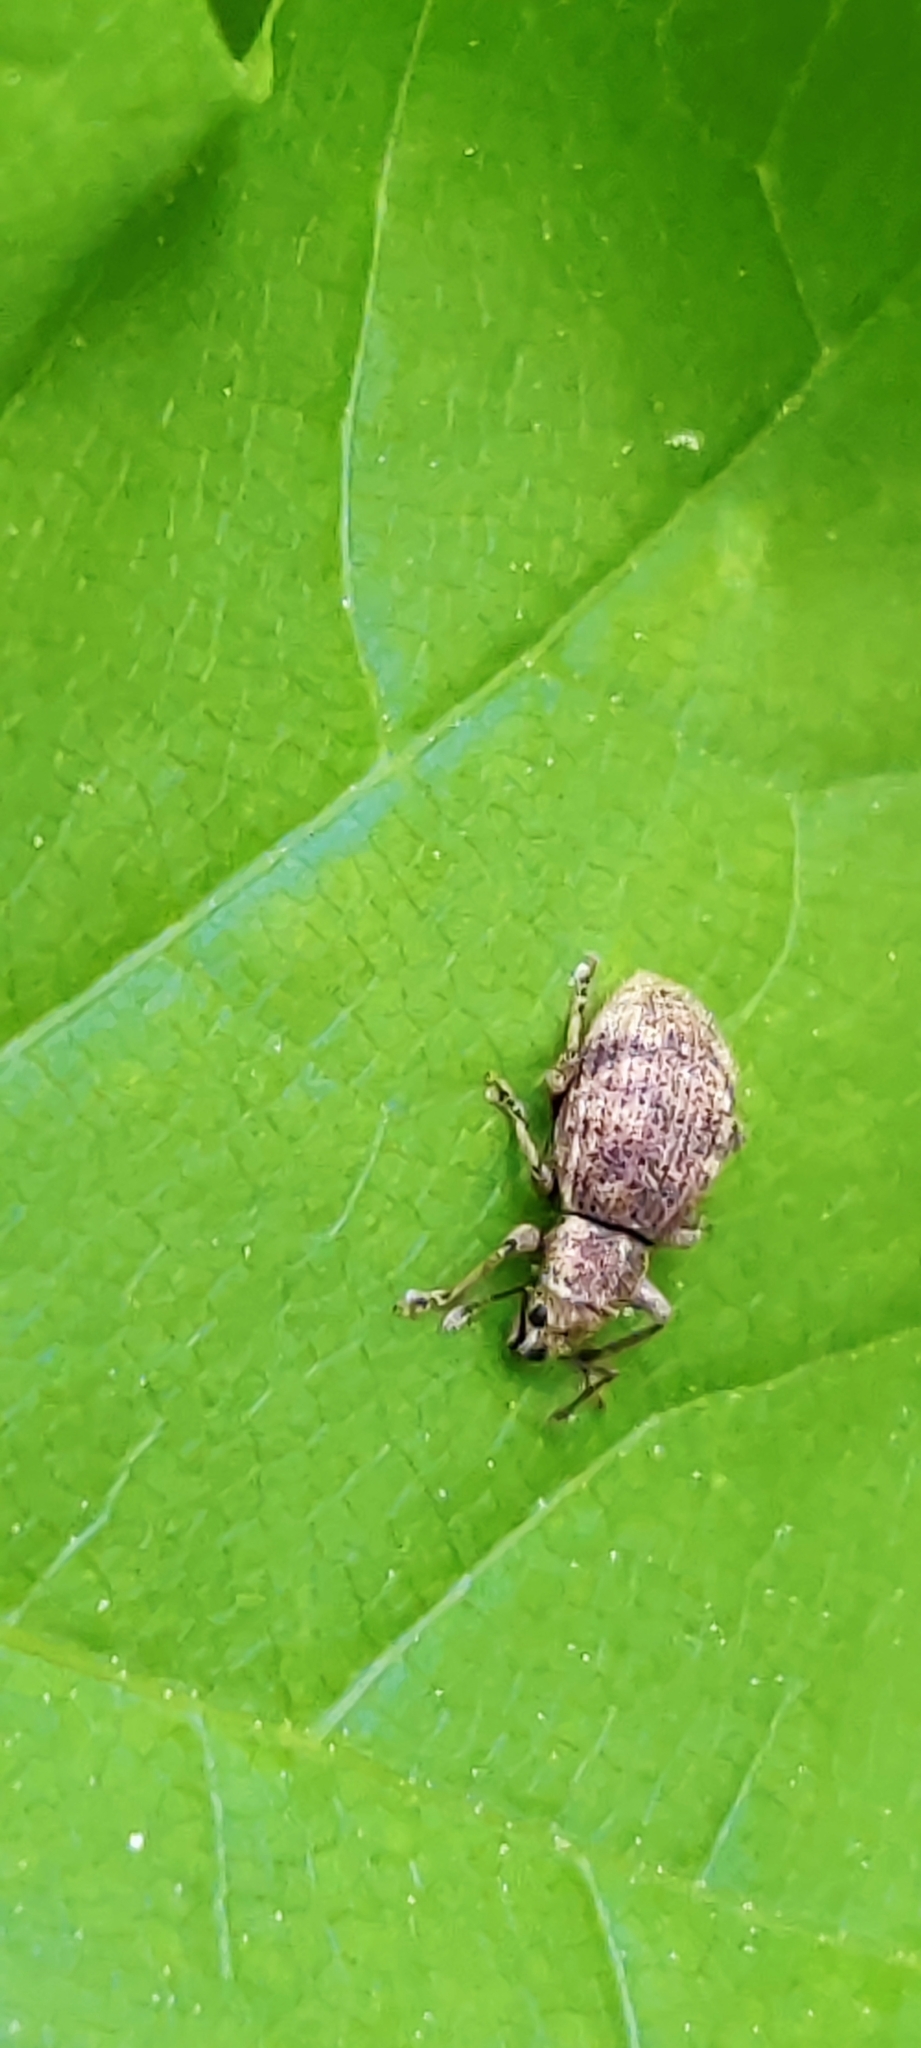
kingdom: Animalia
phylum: Arthropoda
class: Insecta
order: Coleoptera
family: Curculionidae
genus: Sciaphilus
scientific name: Sciaphilus asperatus
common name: Weevil
